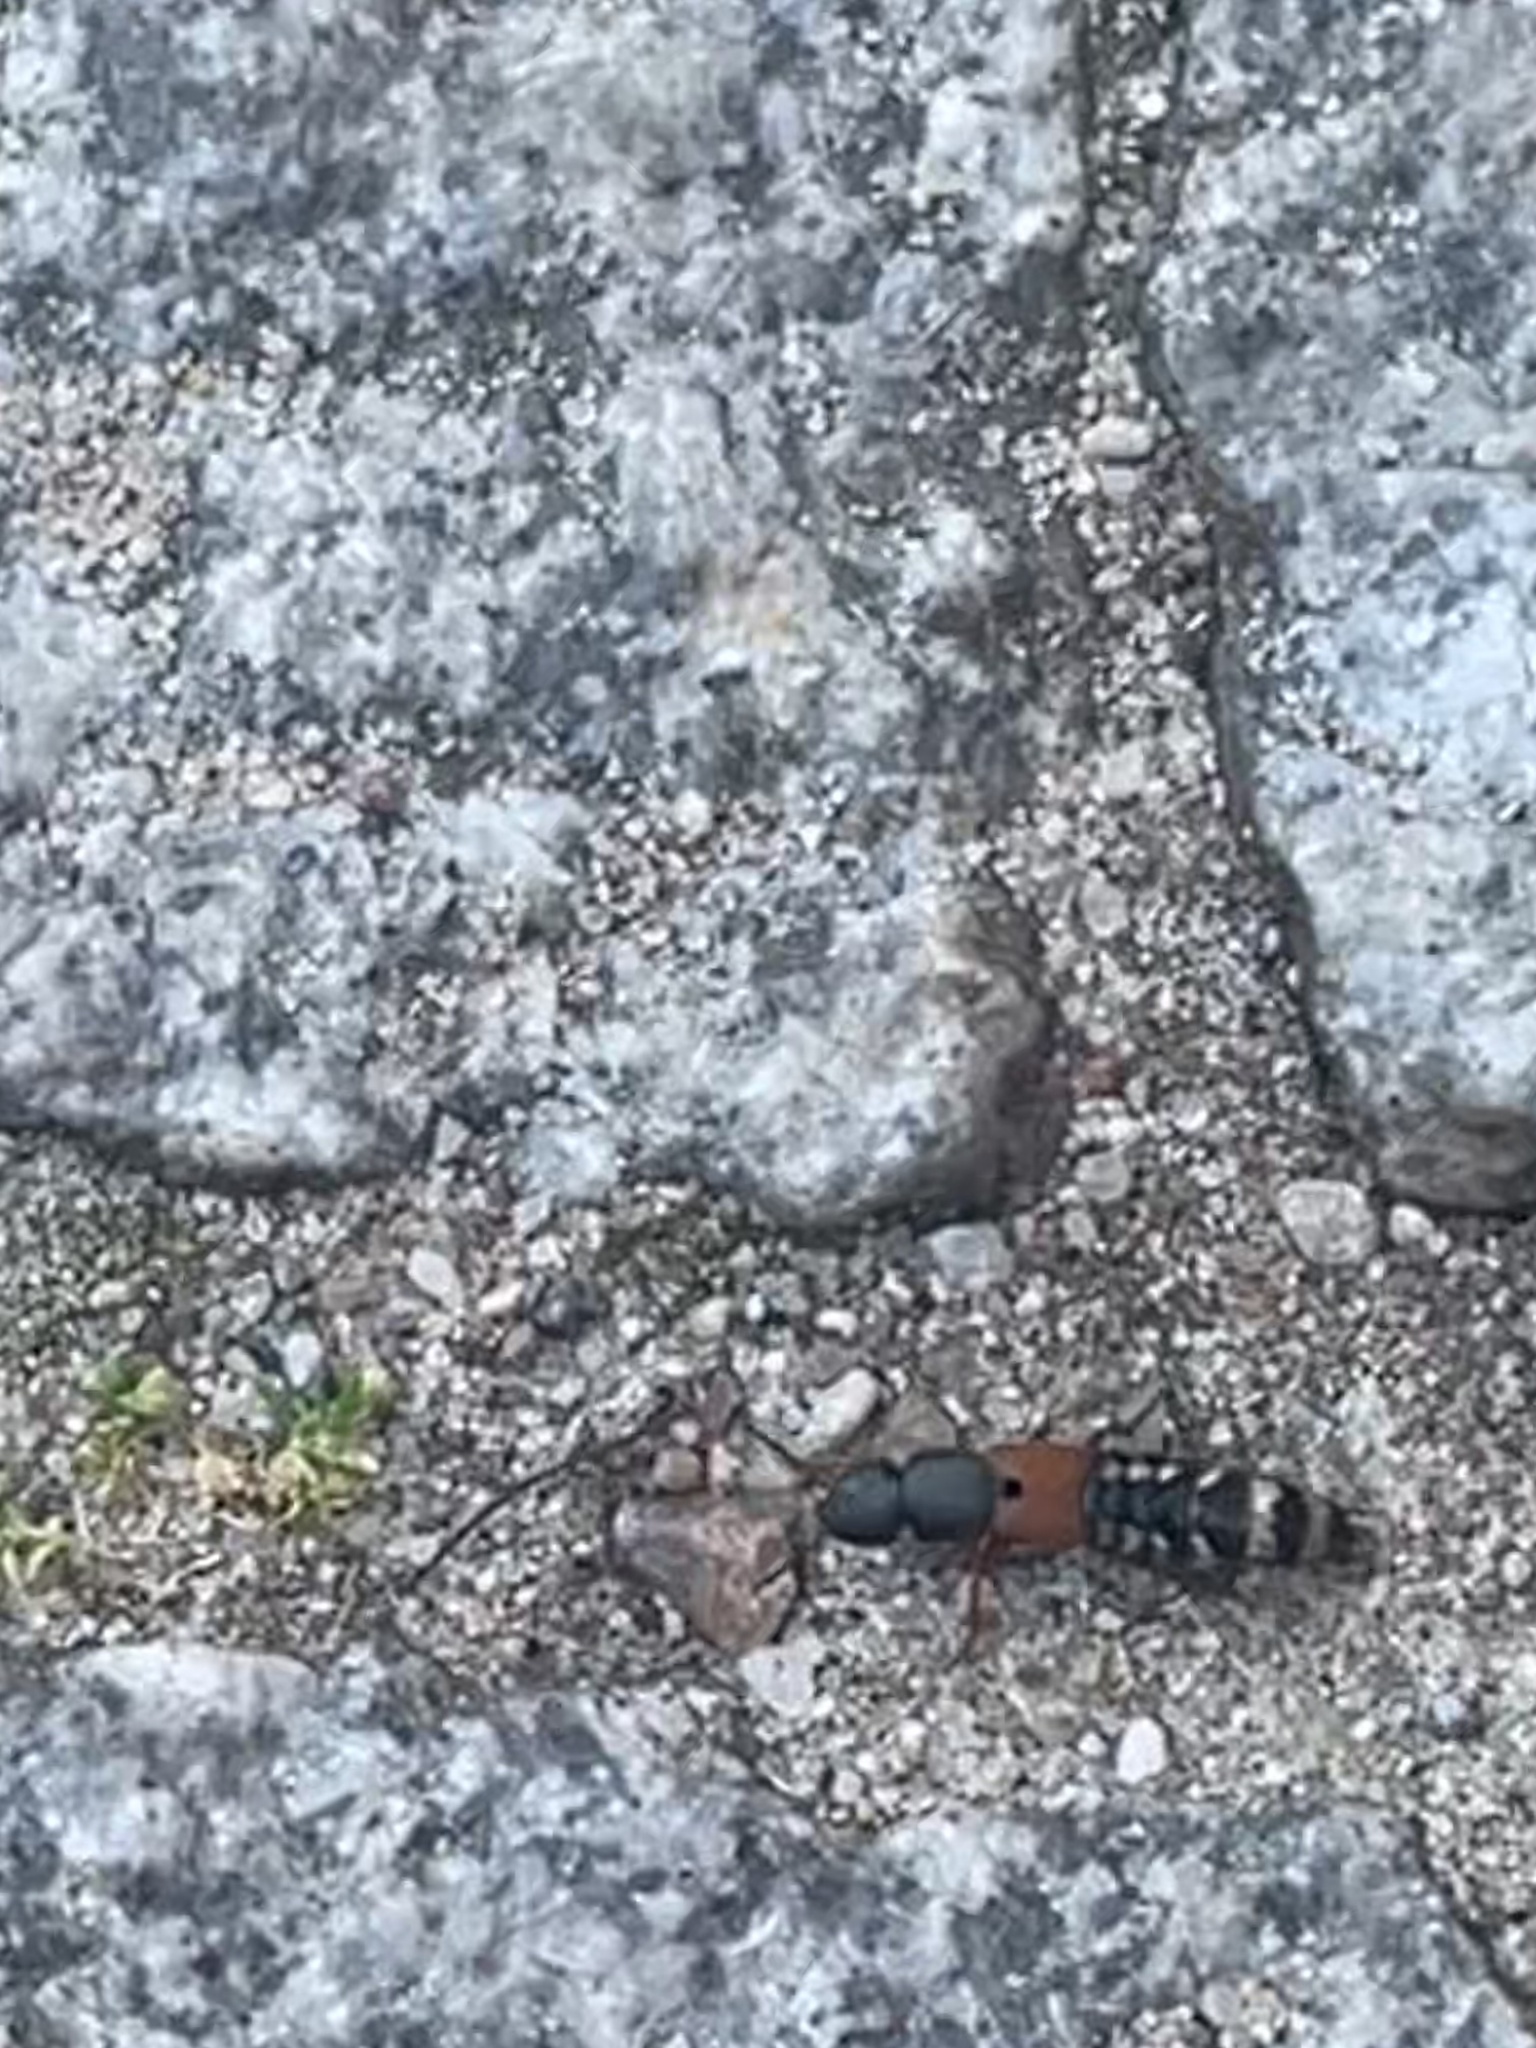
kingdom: Animalia
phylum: Arthropoda
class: Insecta
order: Coleoptera
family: Staphylinidae
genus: Platydracus
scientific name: Platydracus stercorarius
